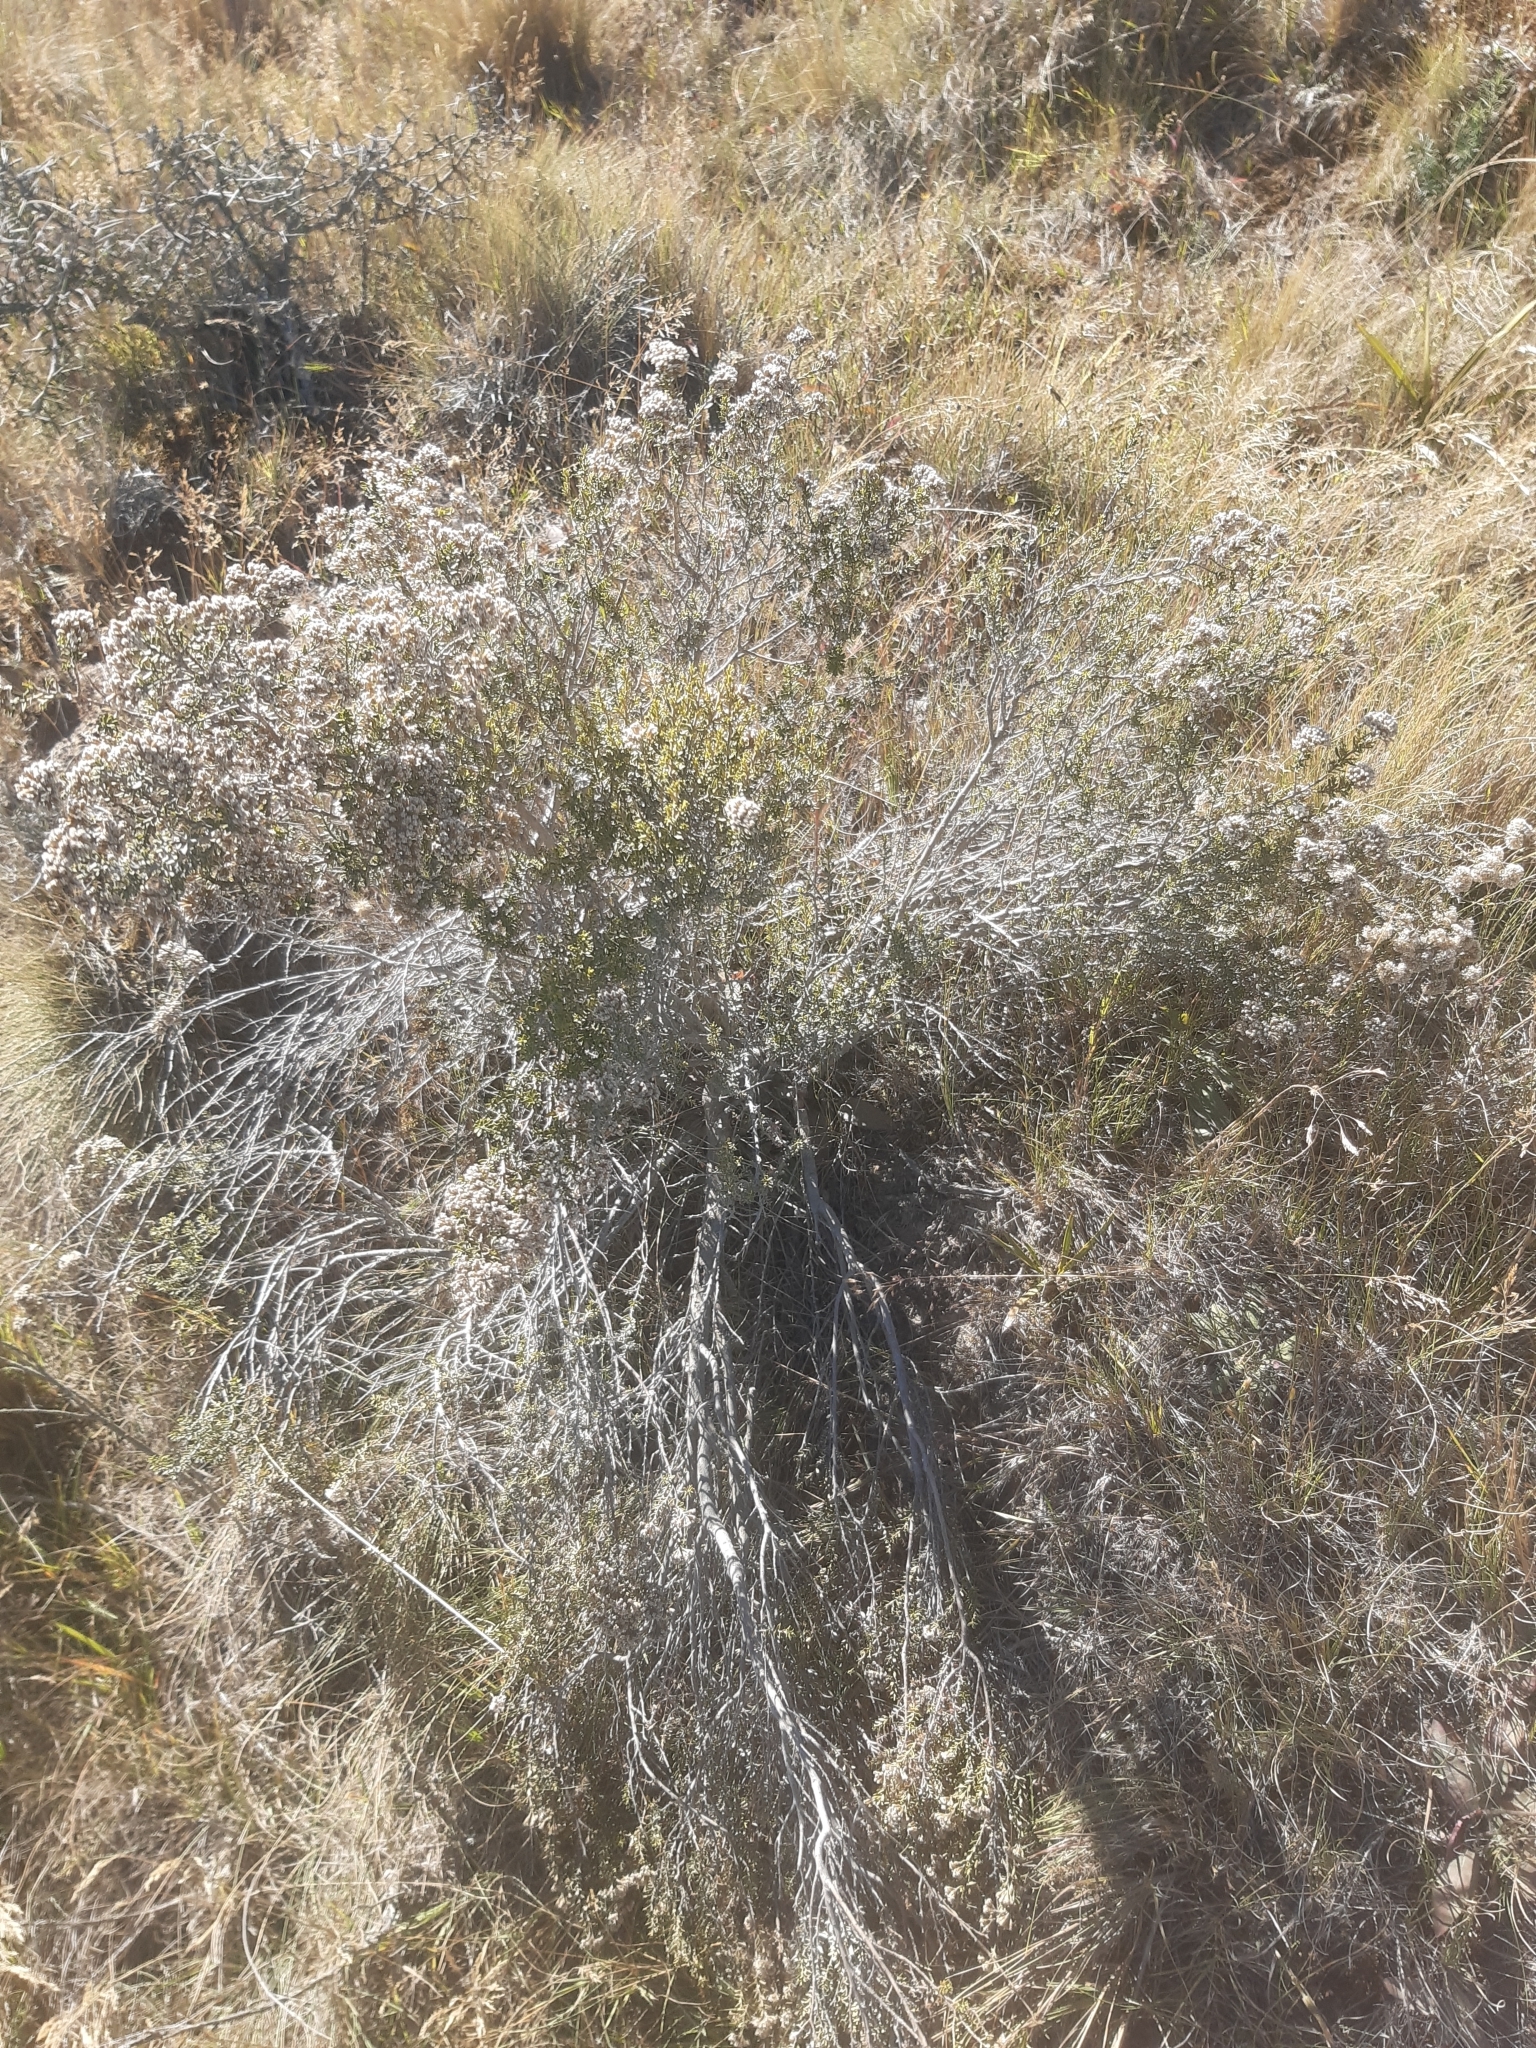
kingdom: Plantae
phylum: Tracheophyta
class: Magnoliopsida
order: Asterales
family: Asteraceae
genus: Ozothamnus
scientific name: Ozothamnus leptophyllus
